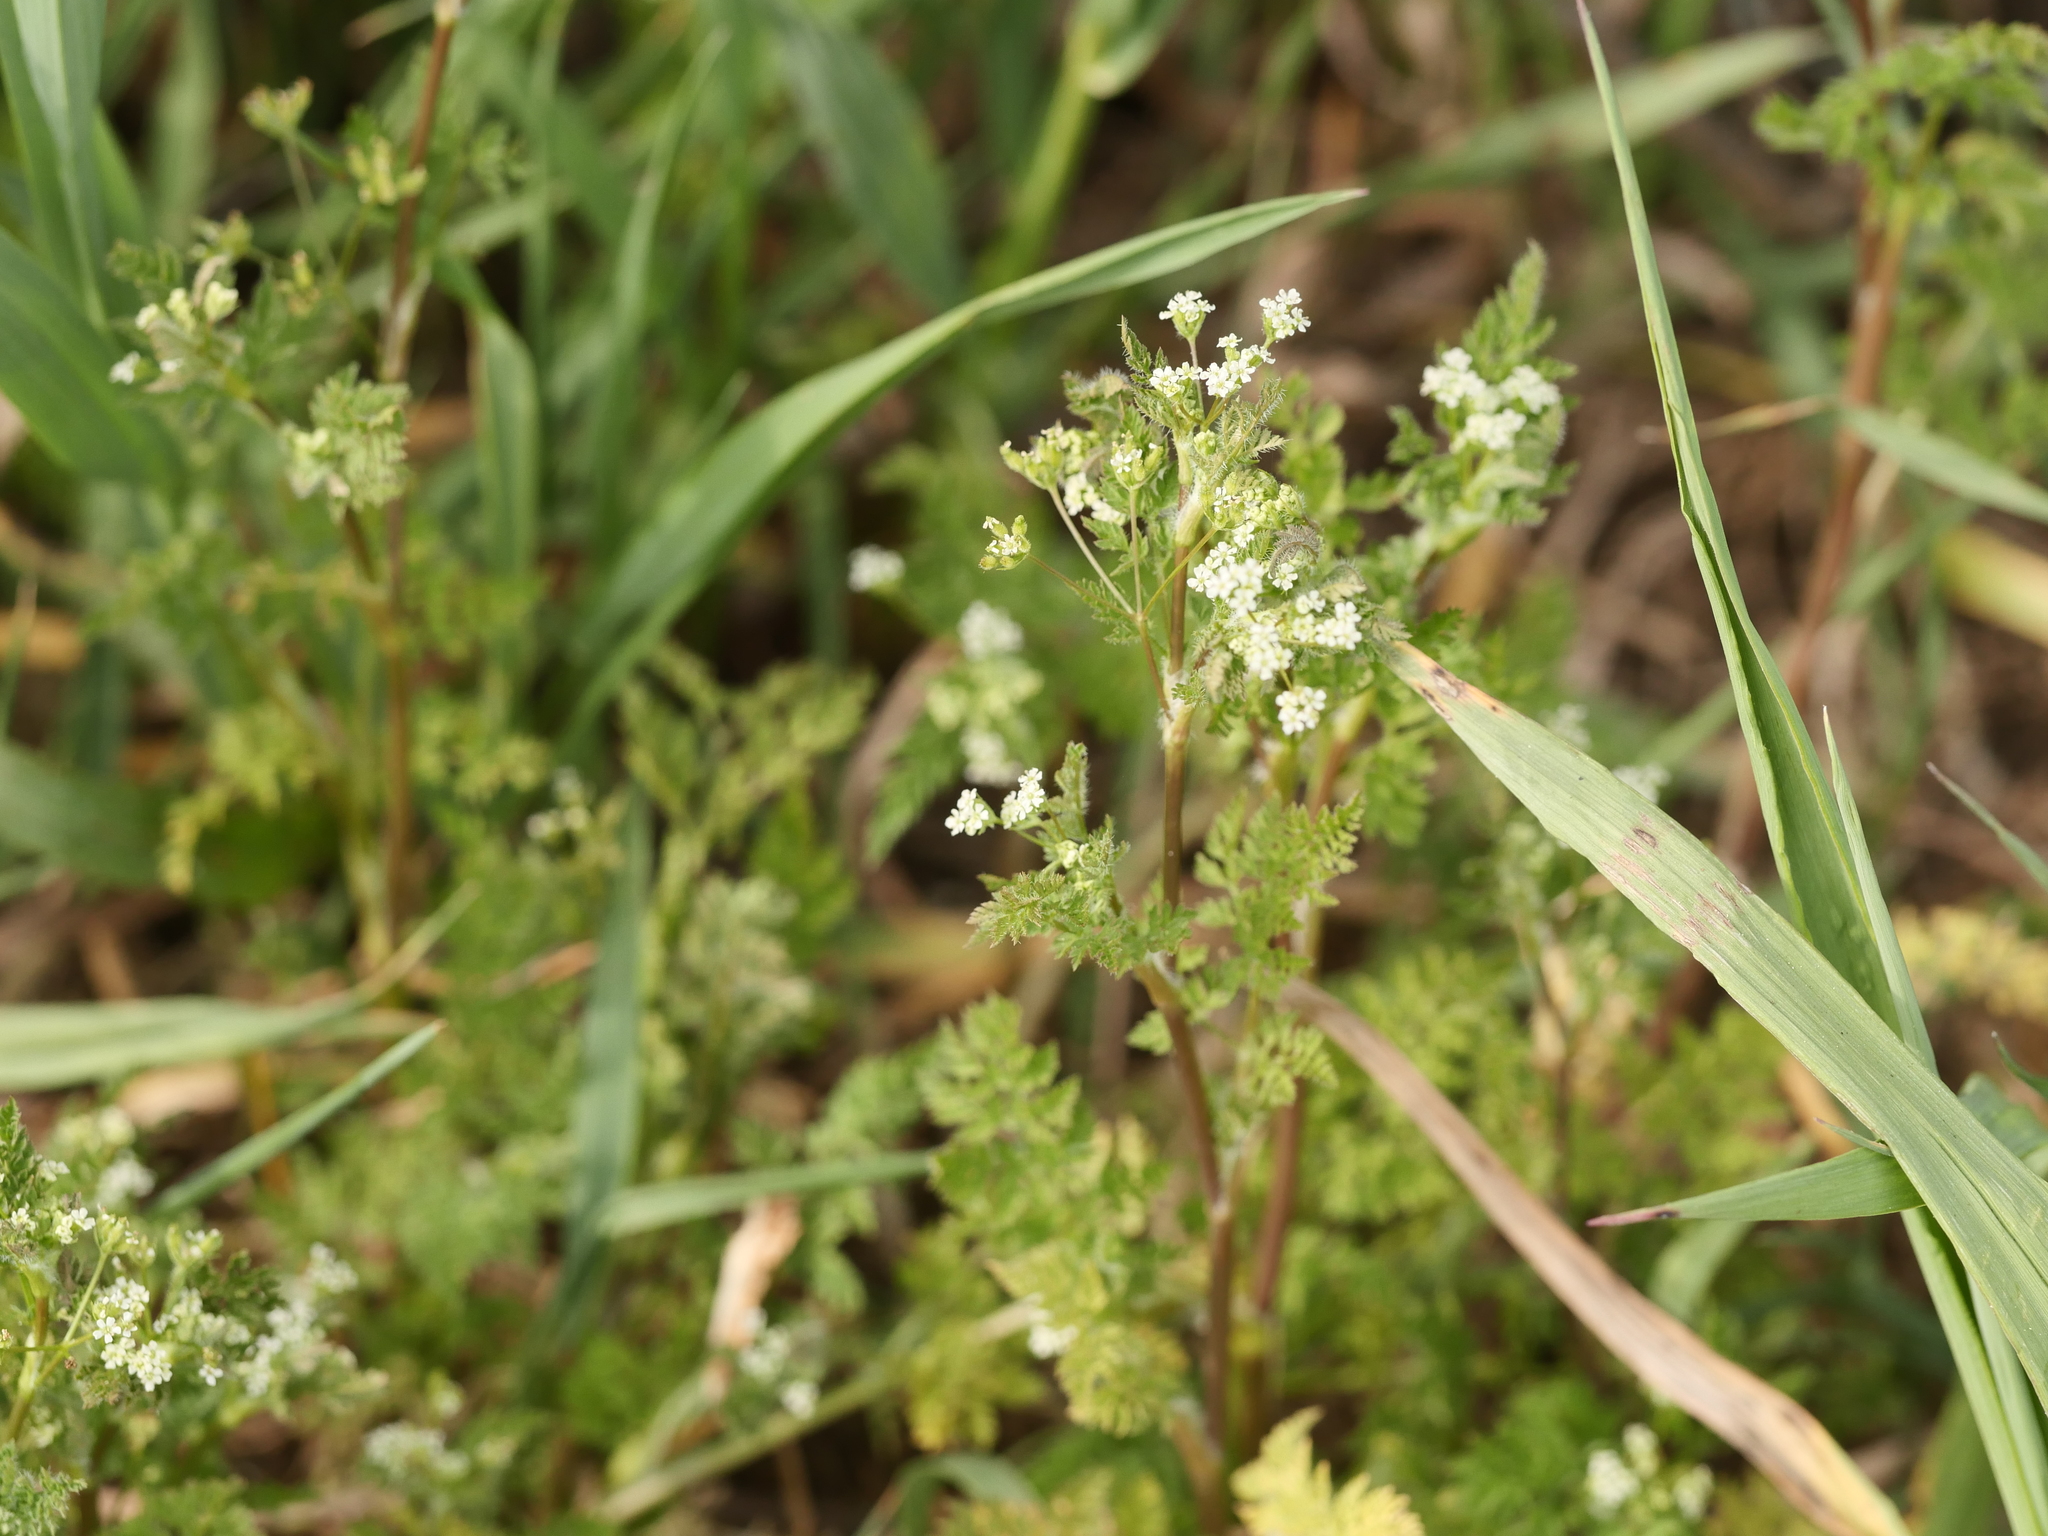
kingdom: Plantae
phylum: Tracheophyta
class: Magnoliopsida
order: Apiales
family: Apiaceae
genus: Anthriscus
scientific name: Anthriscus caucalis
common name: Bur chervil
